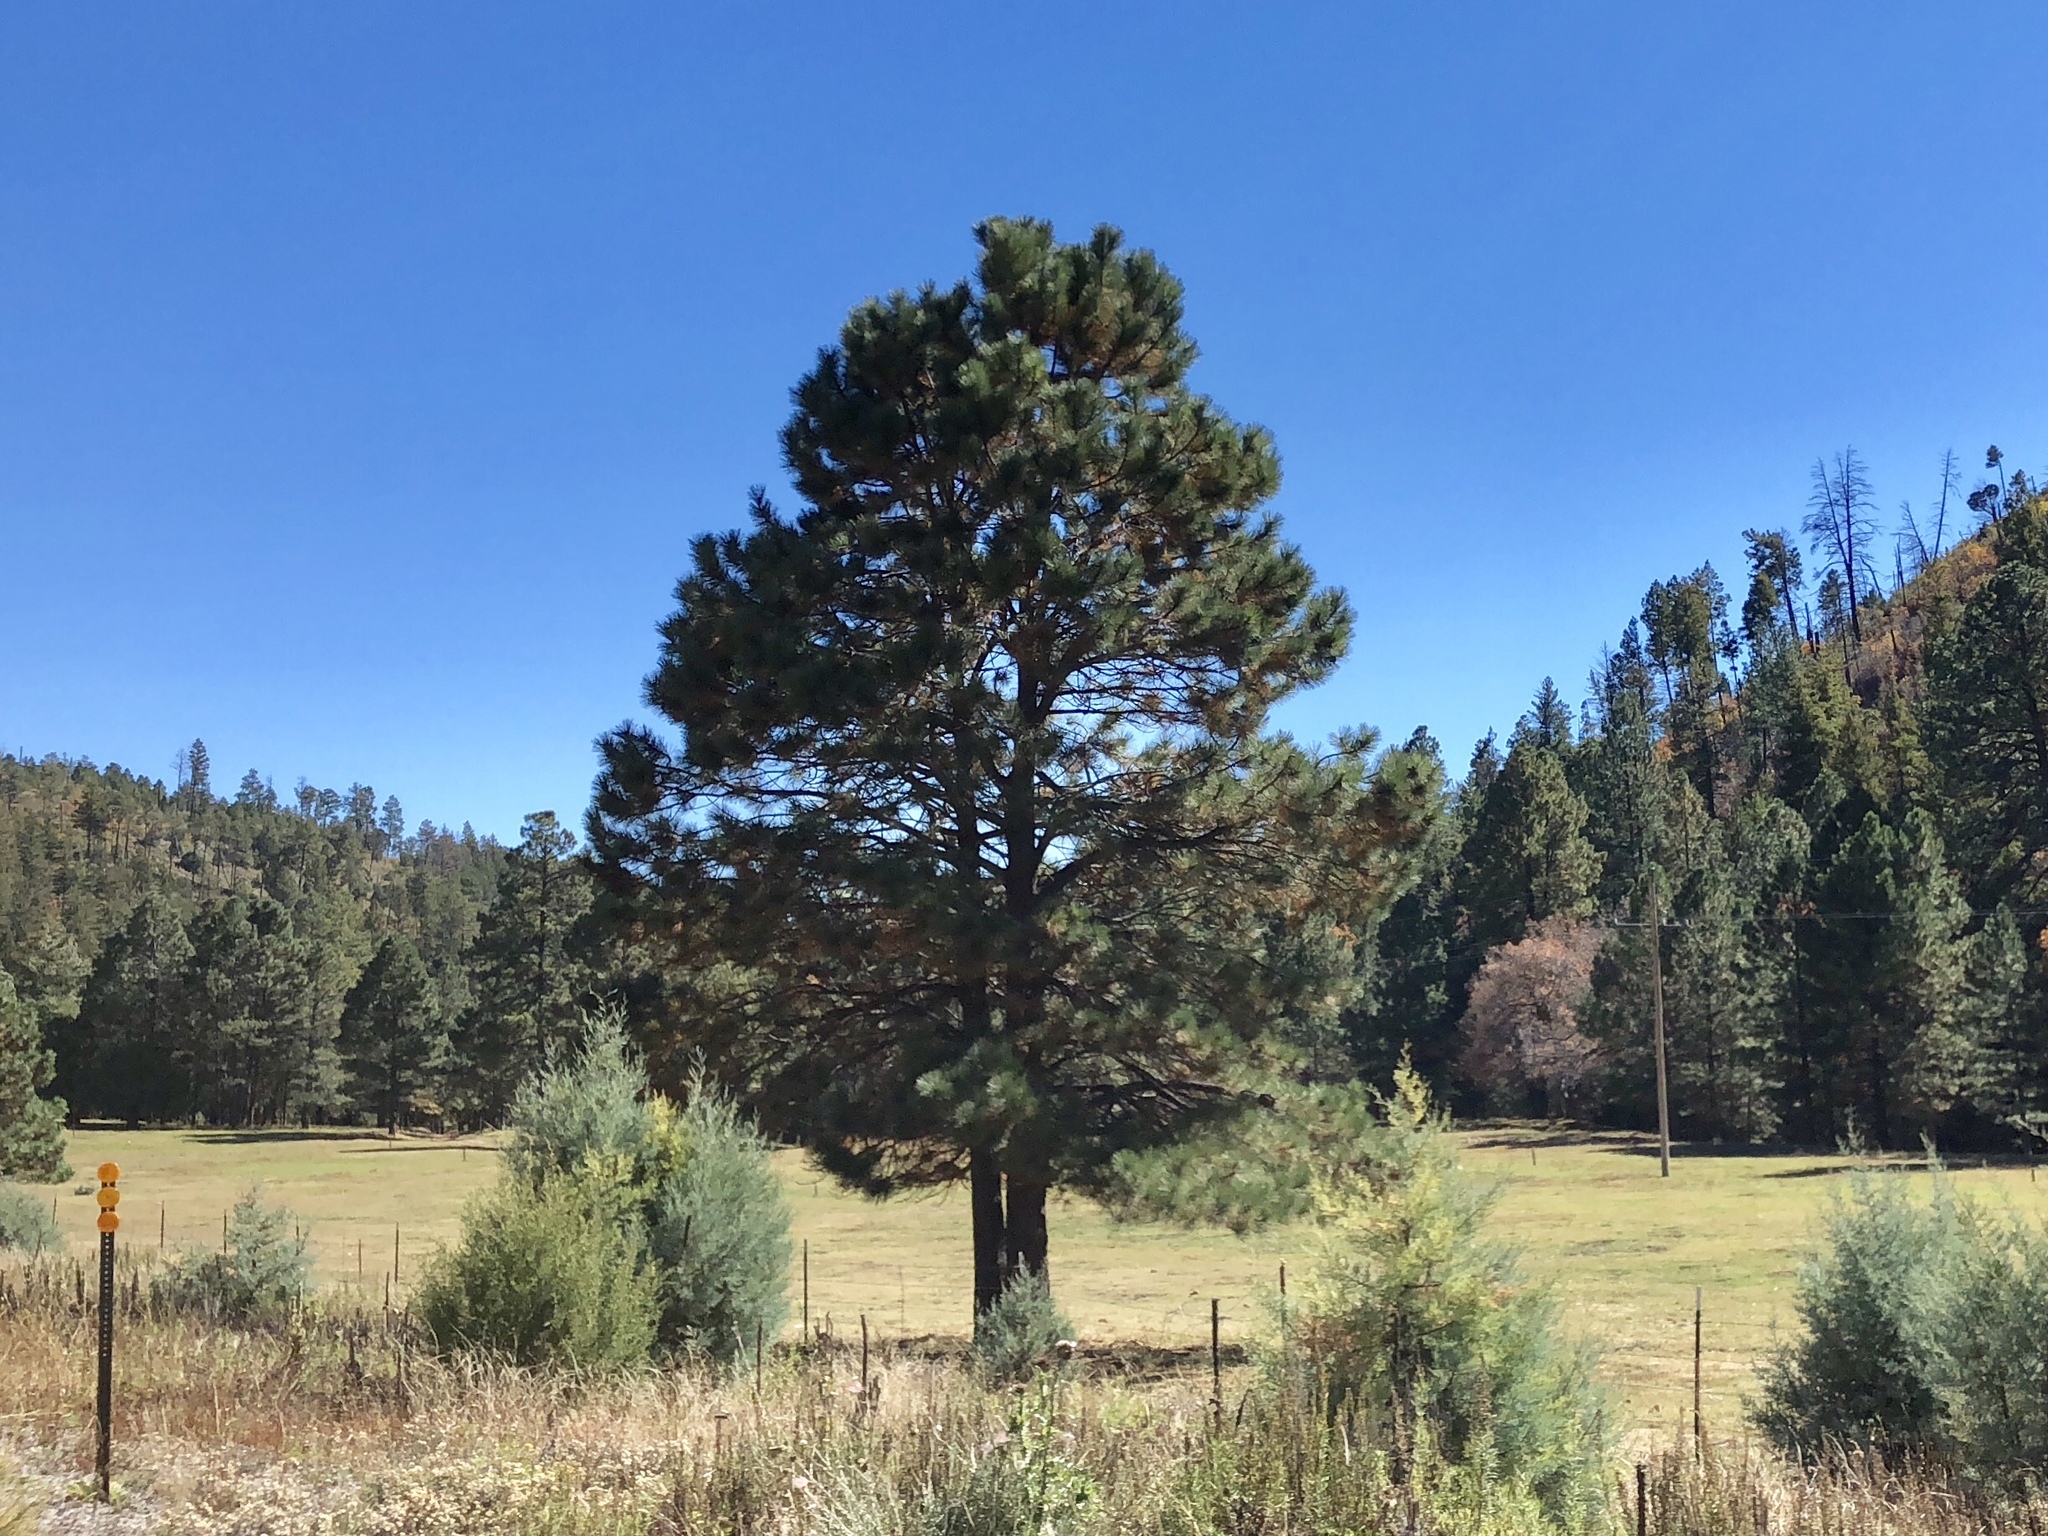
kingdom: Plantae
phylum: Tracheophyta
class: Pinopsida
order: Pinales
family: Pinaceae
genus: Pinus
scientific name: Pinus ponderosa
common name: Western yellow-pine
